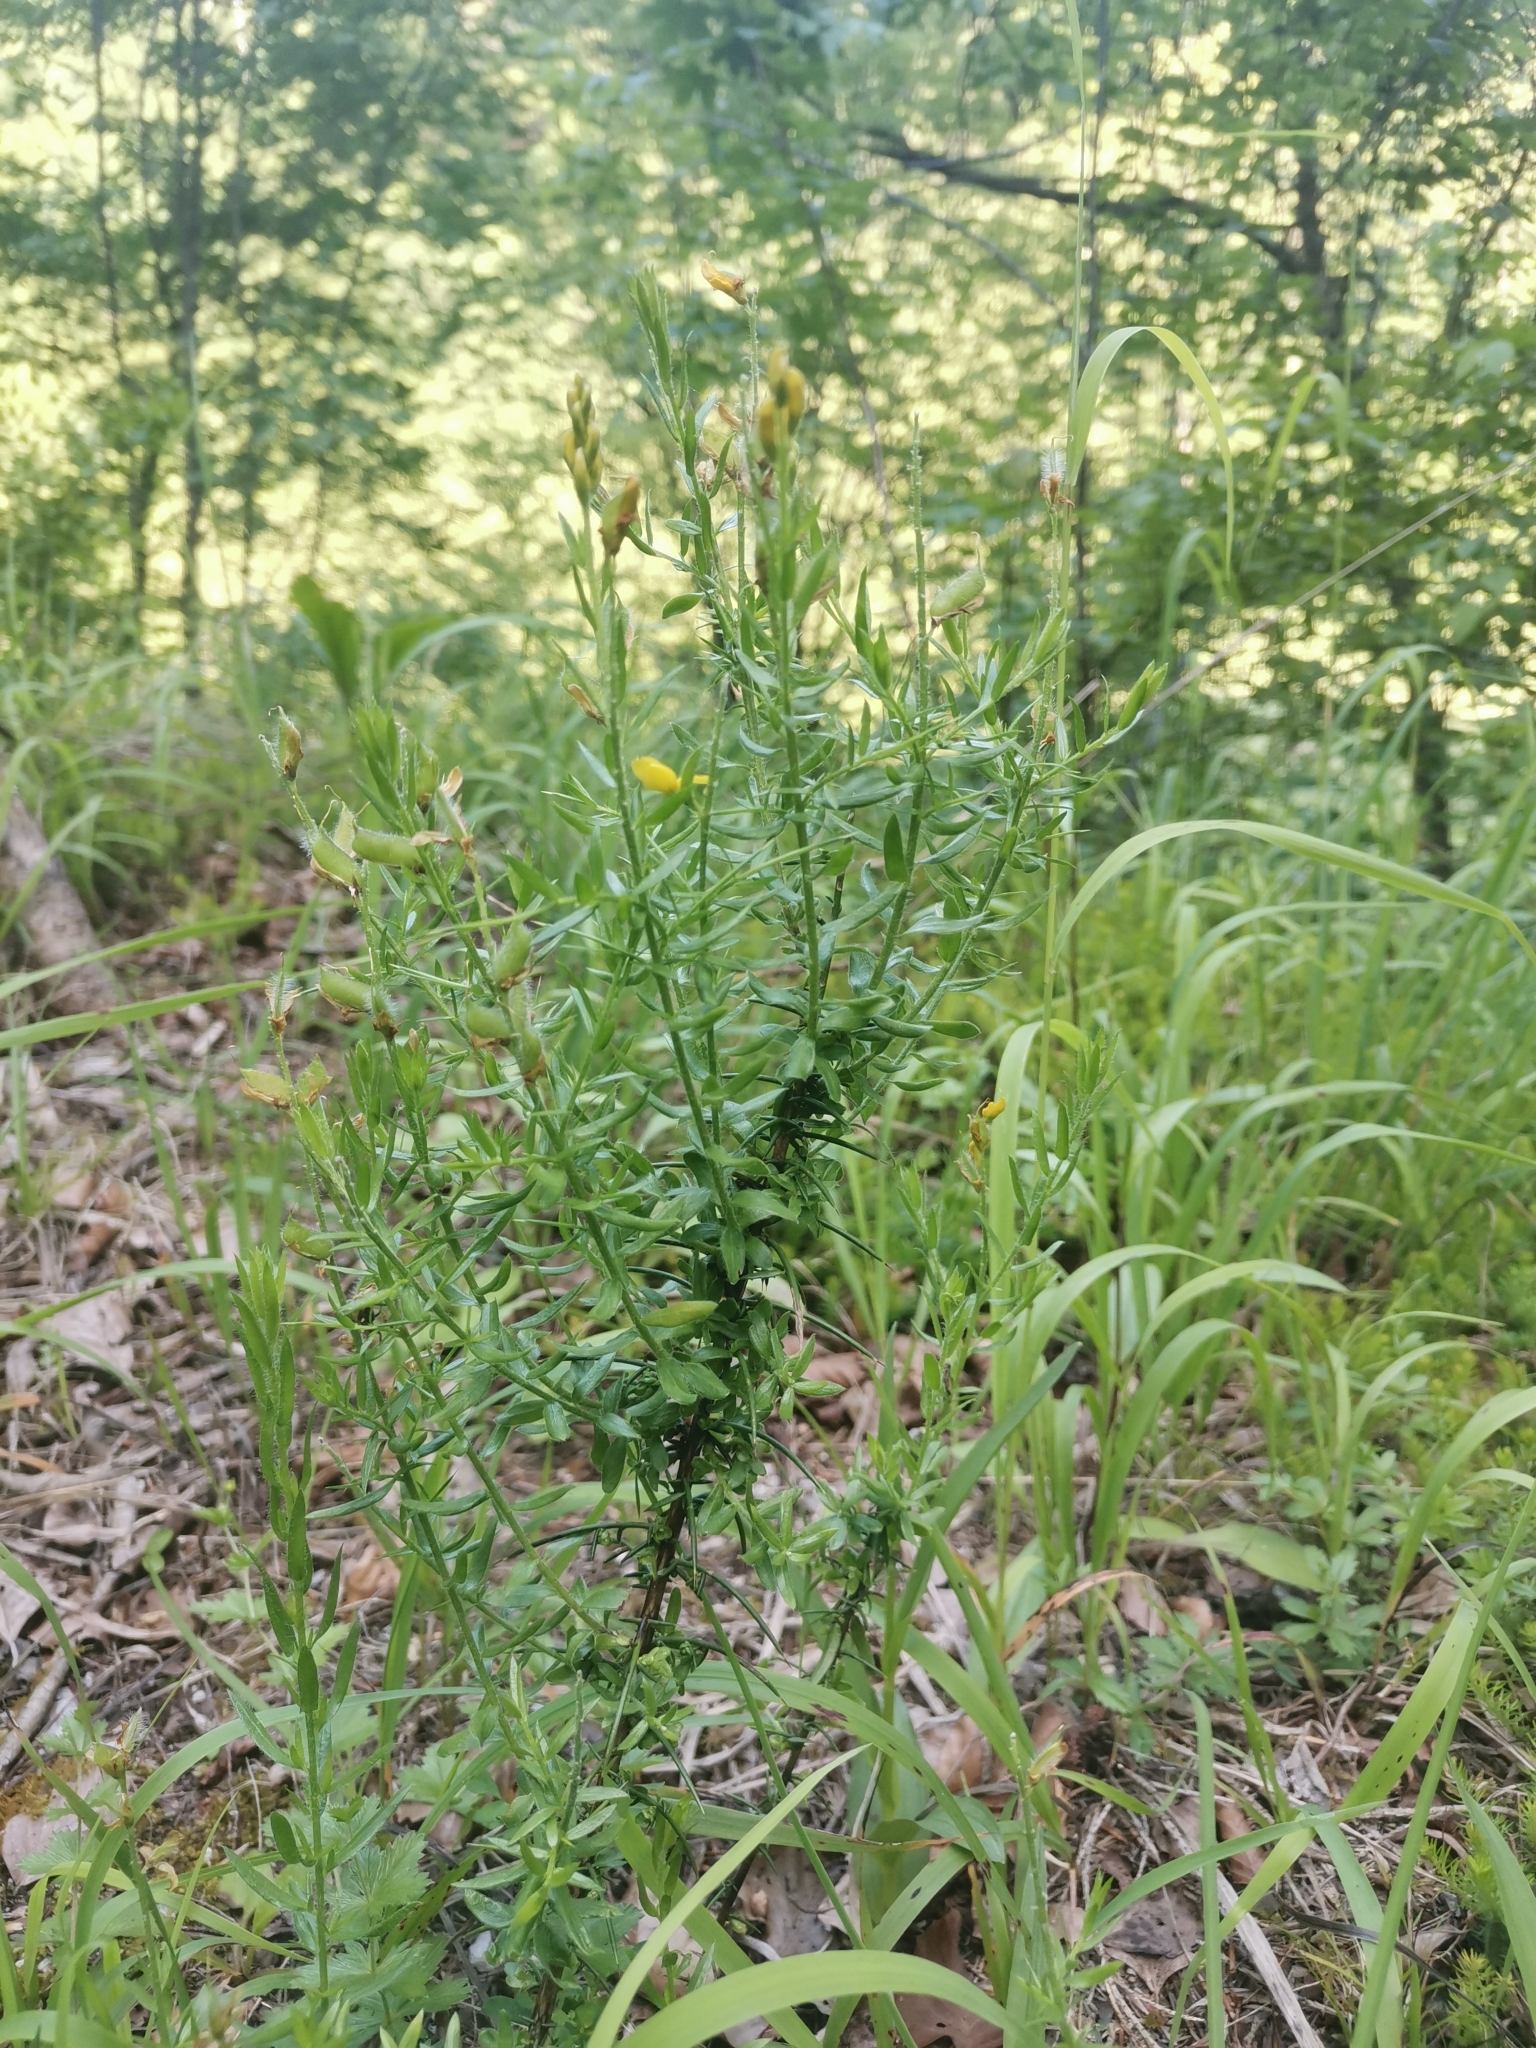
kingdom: Plantae
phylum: Tracheophyta
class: Magnoliopsida
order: Fabales
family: Fabaceae
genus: Genista
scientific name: Genista germanica
